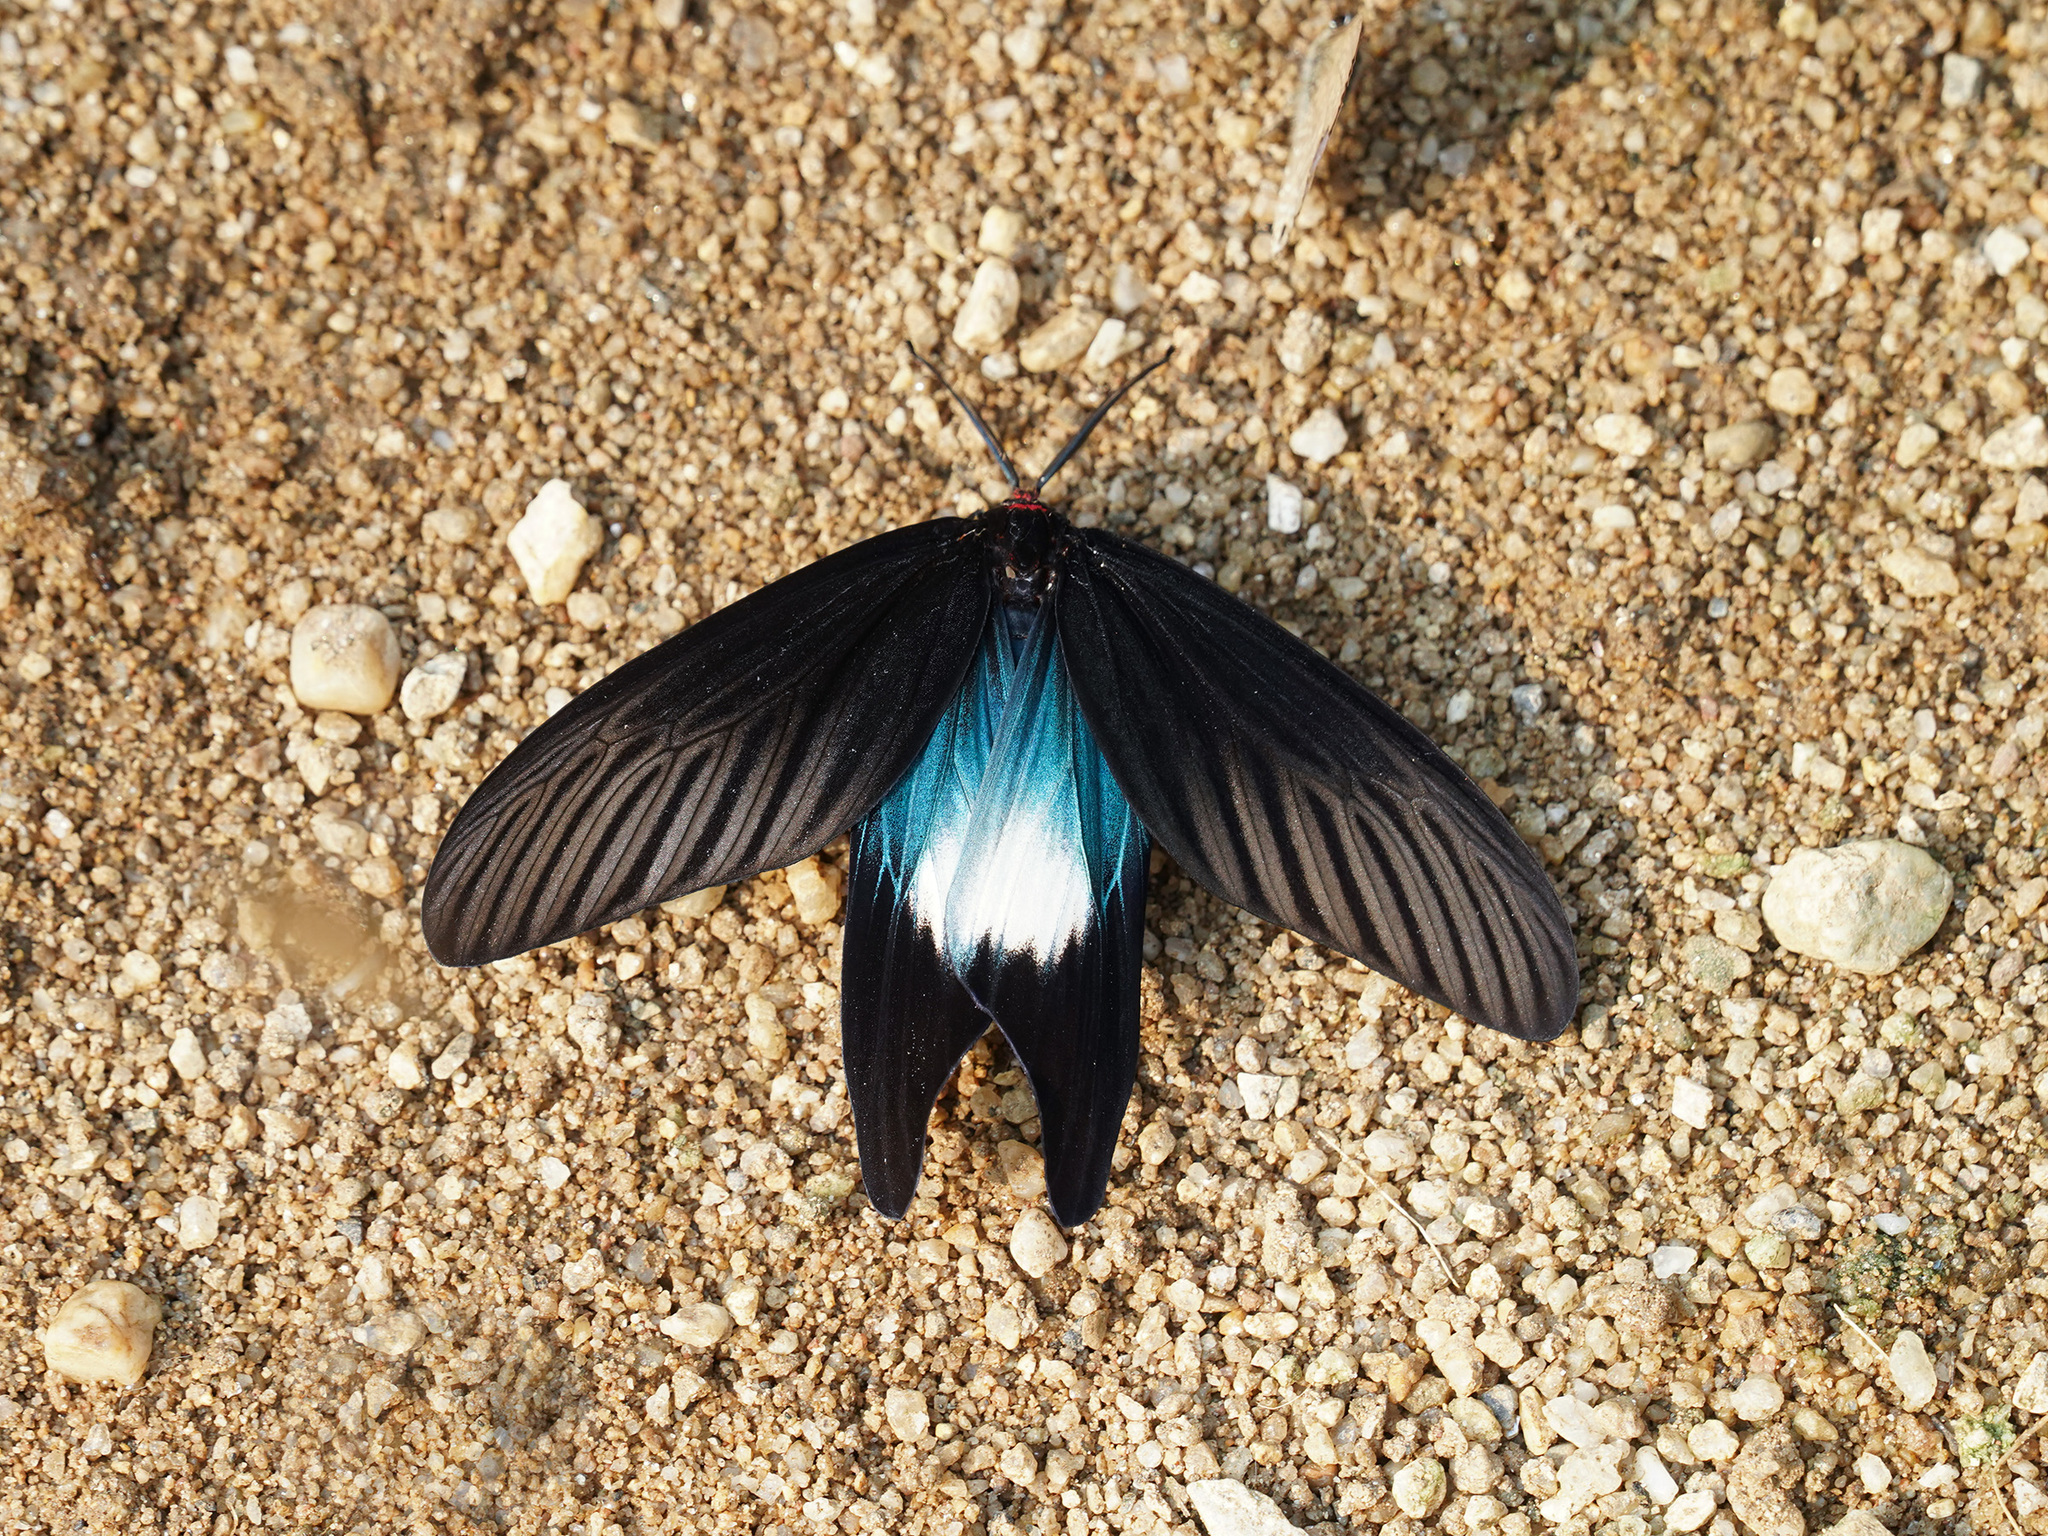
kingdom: Animalia
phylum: Arthropoda
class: Insecta
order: Lepidoptera
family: Zygaenidae
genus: Histia
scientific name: Histia flabellicornis
